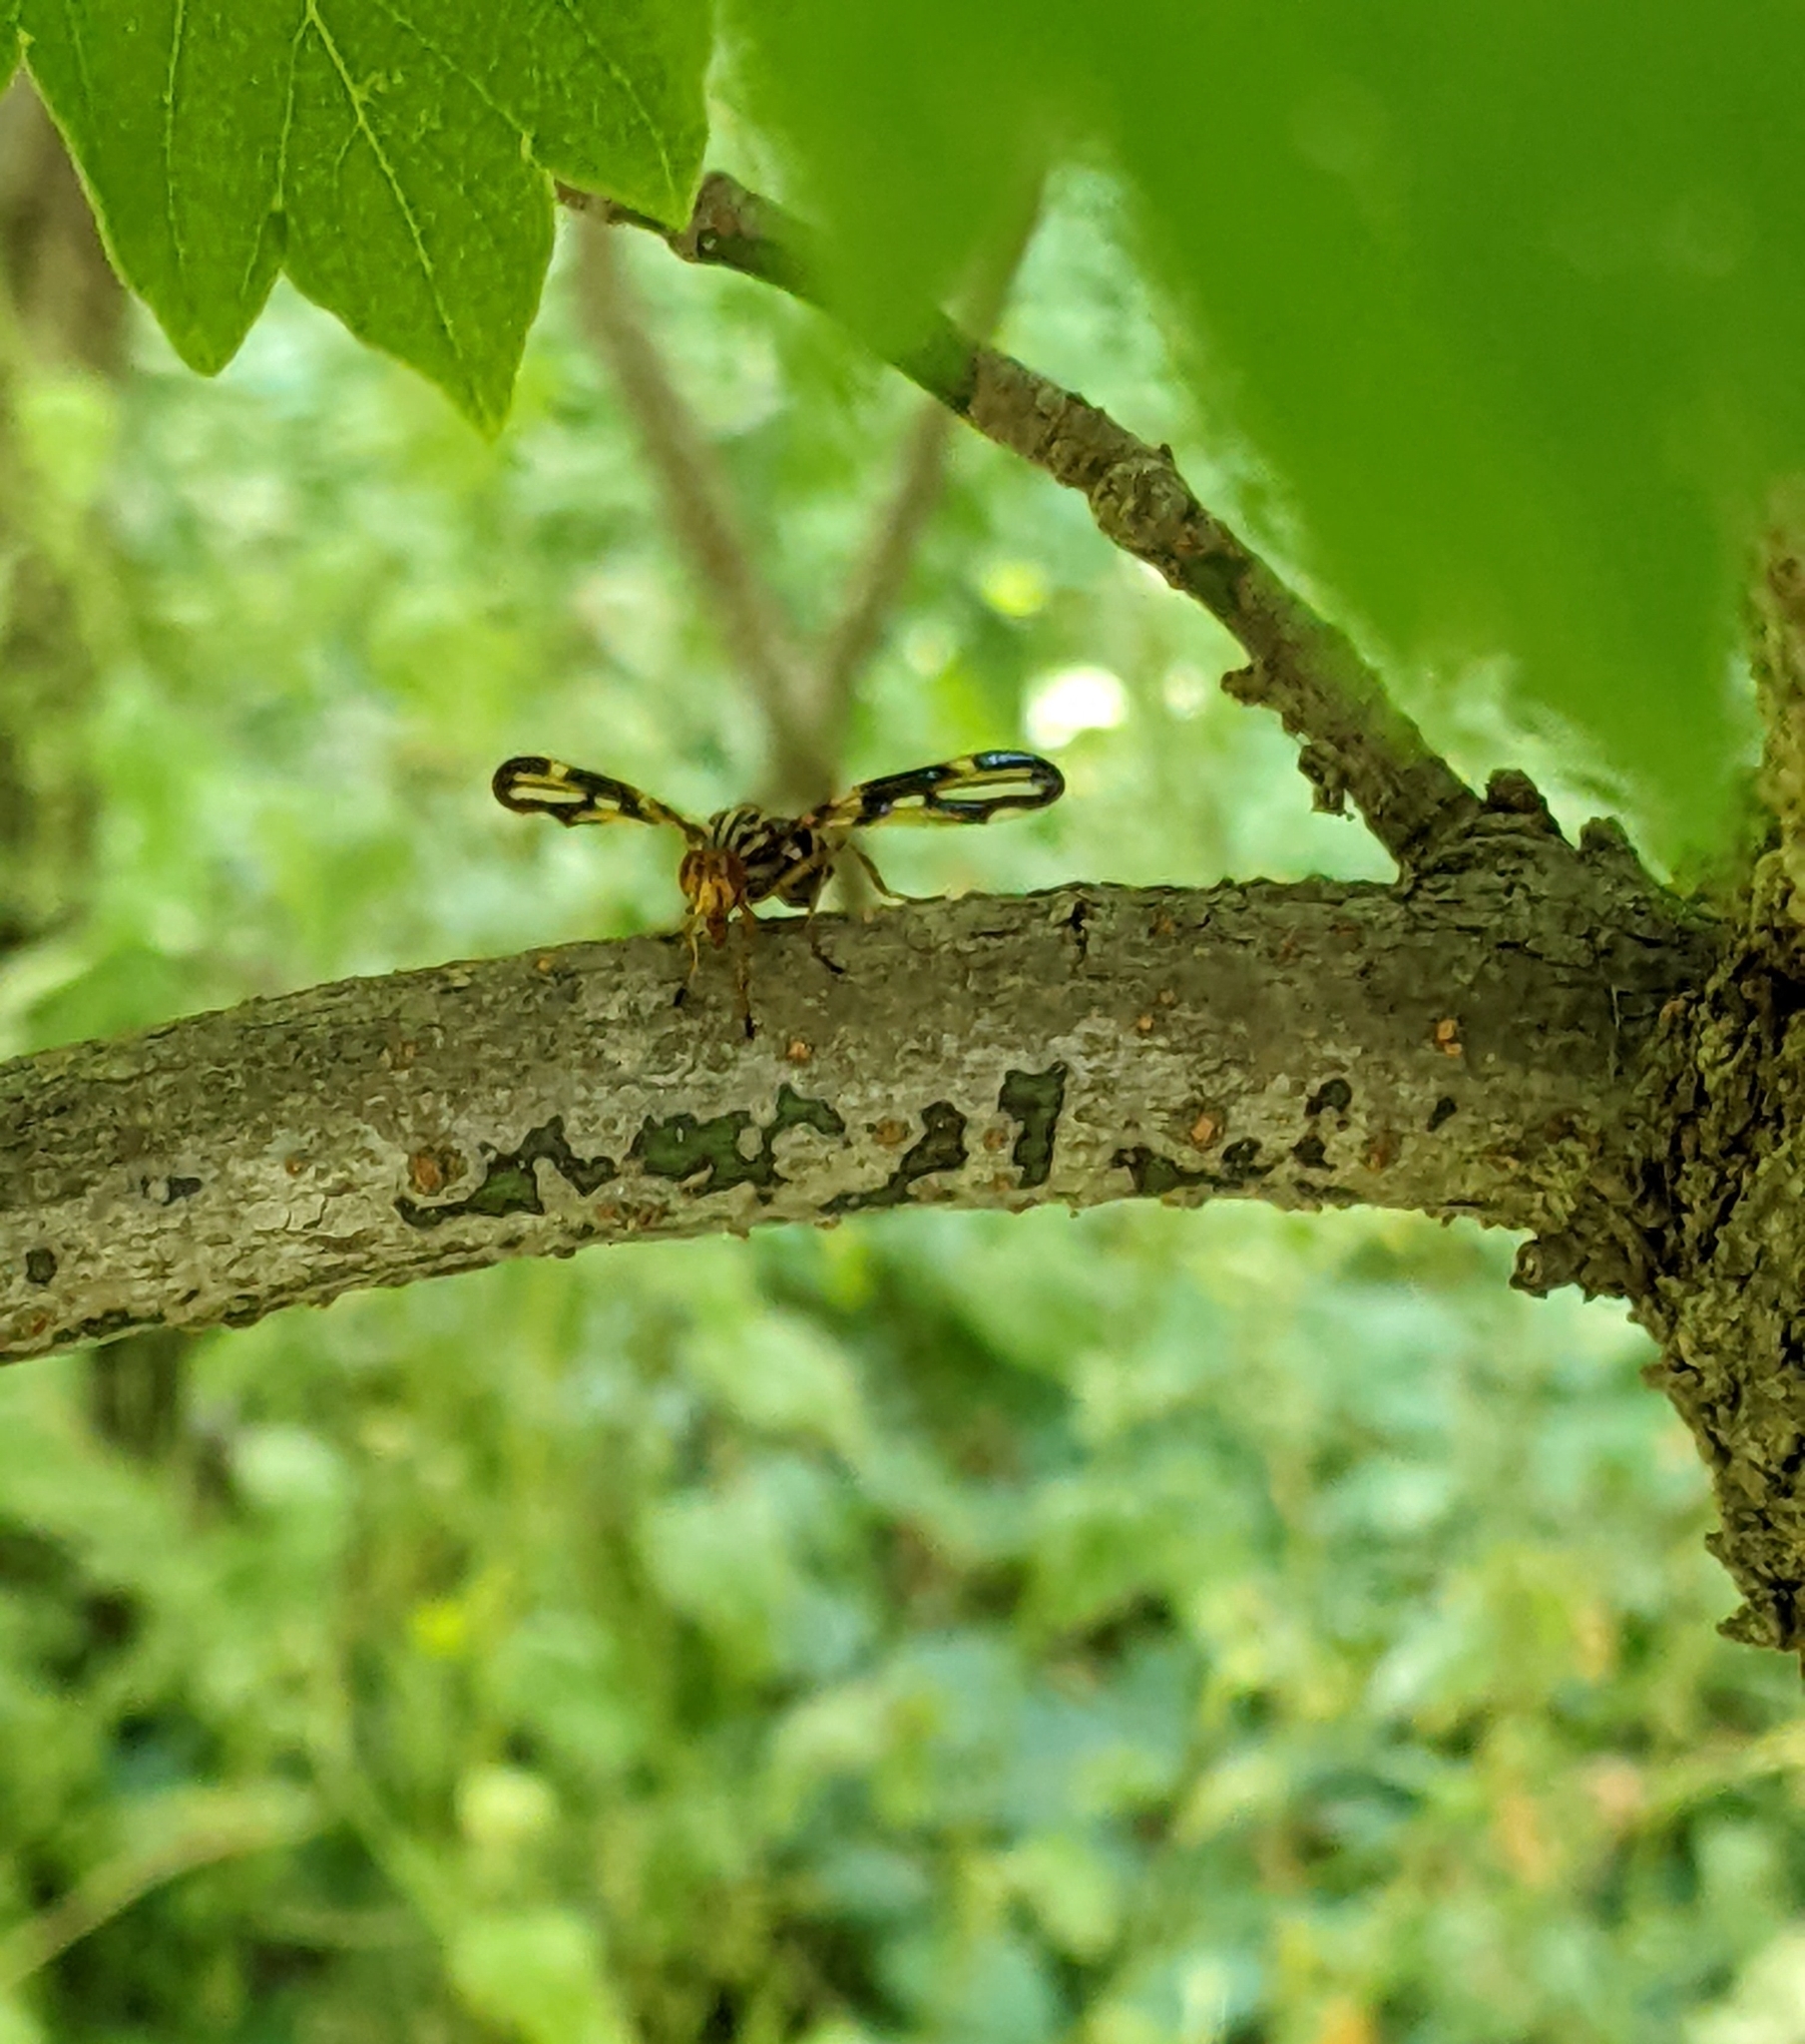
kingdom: Animalia
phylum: Arthropoda
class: Insecta
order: Diptera
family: Ulidiidae
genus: Idana
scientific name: Idana marginata
